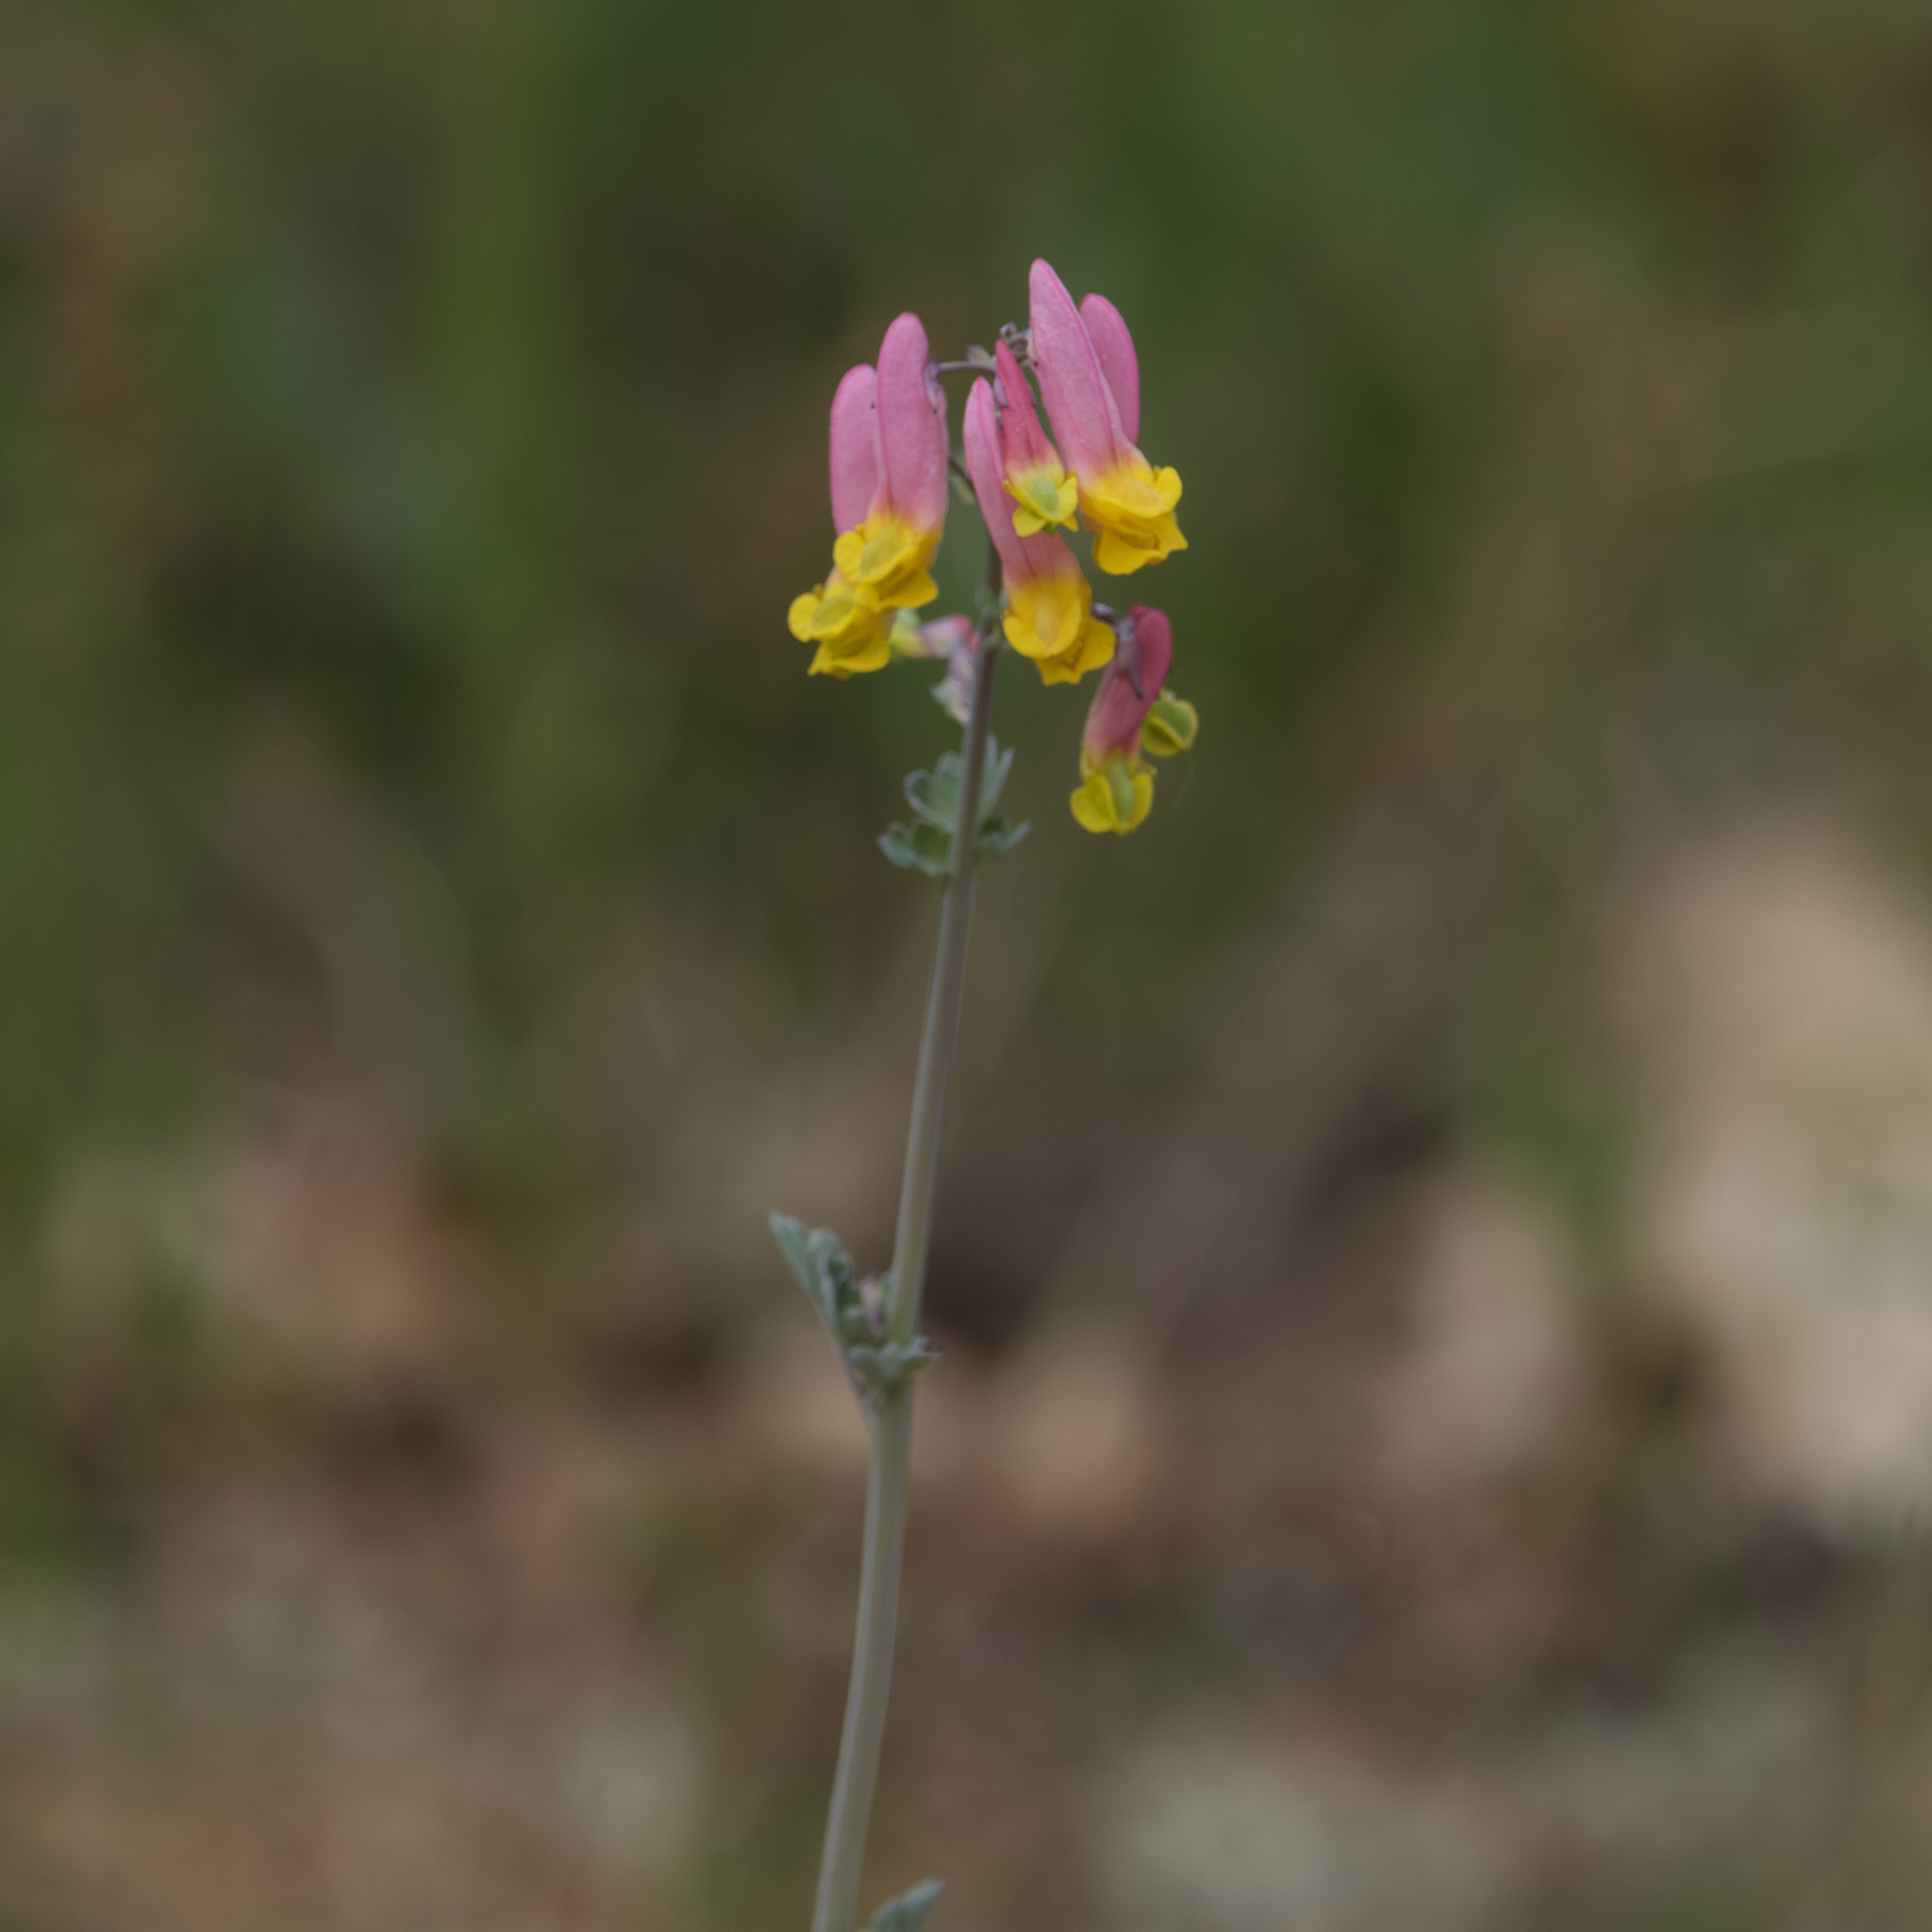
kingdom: Plantae
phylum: Tracheophyta
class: Magnoliopsida
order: Ranunculales
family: Papaveraceae
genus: Capnoides
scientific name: Capnoides sempervirens
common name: Rock harlequin
